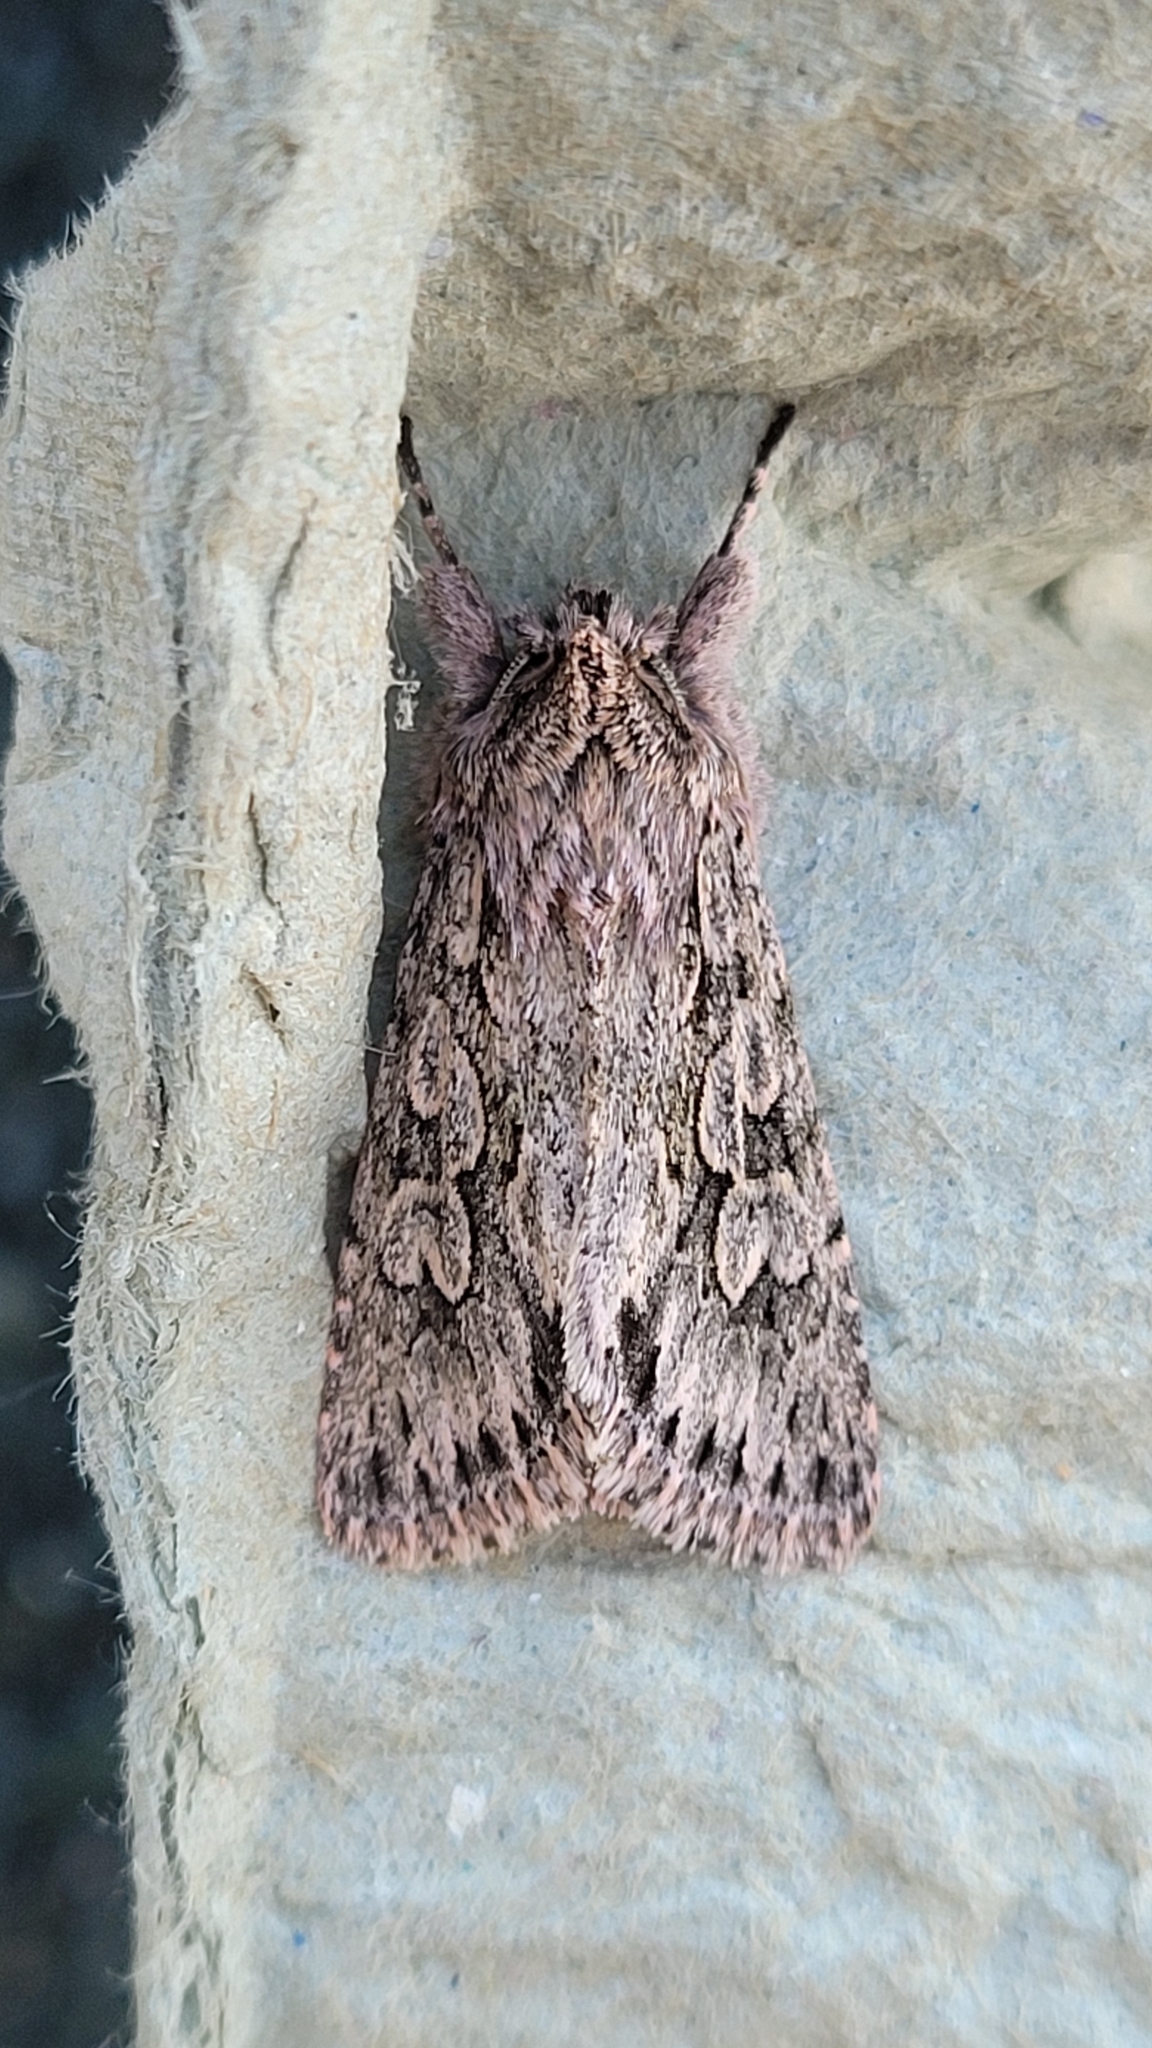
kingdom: Animalia
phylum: Arthropoda
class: Insecta
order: Lepidoptera
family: Noctuidae
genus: Xylocampa
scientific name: Xylocampa areola
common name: Early grey
